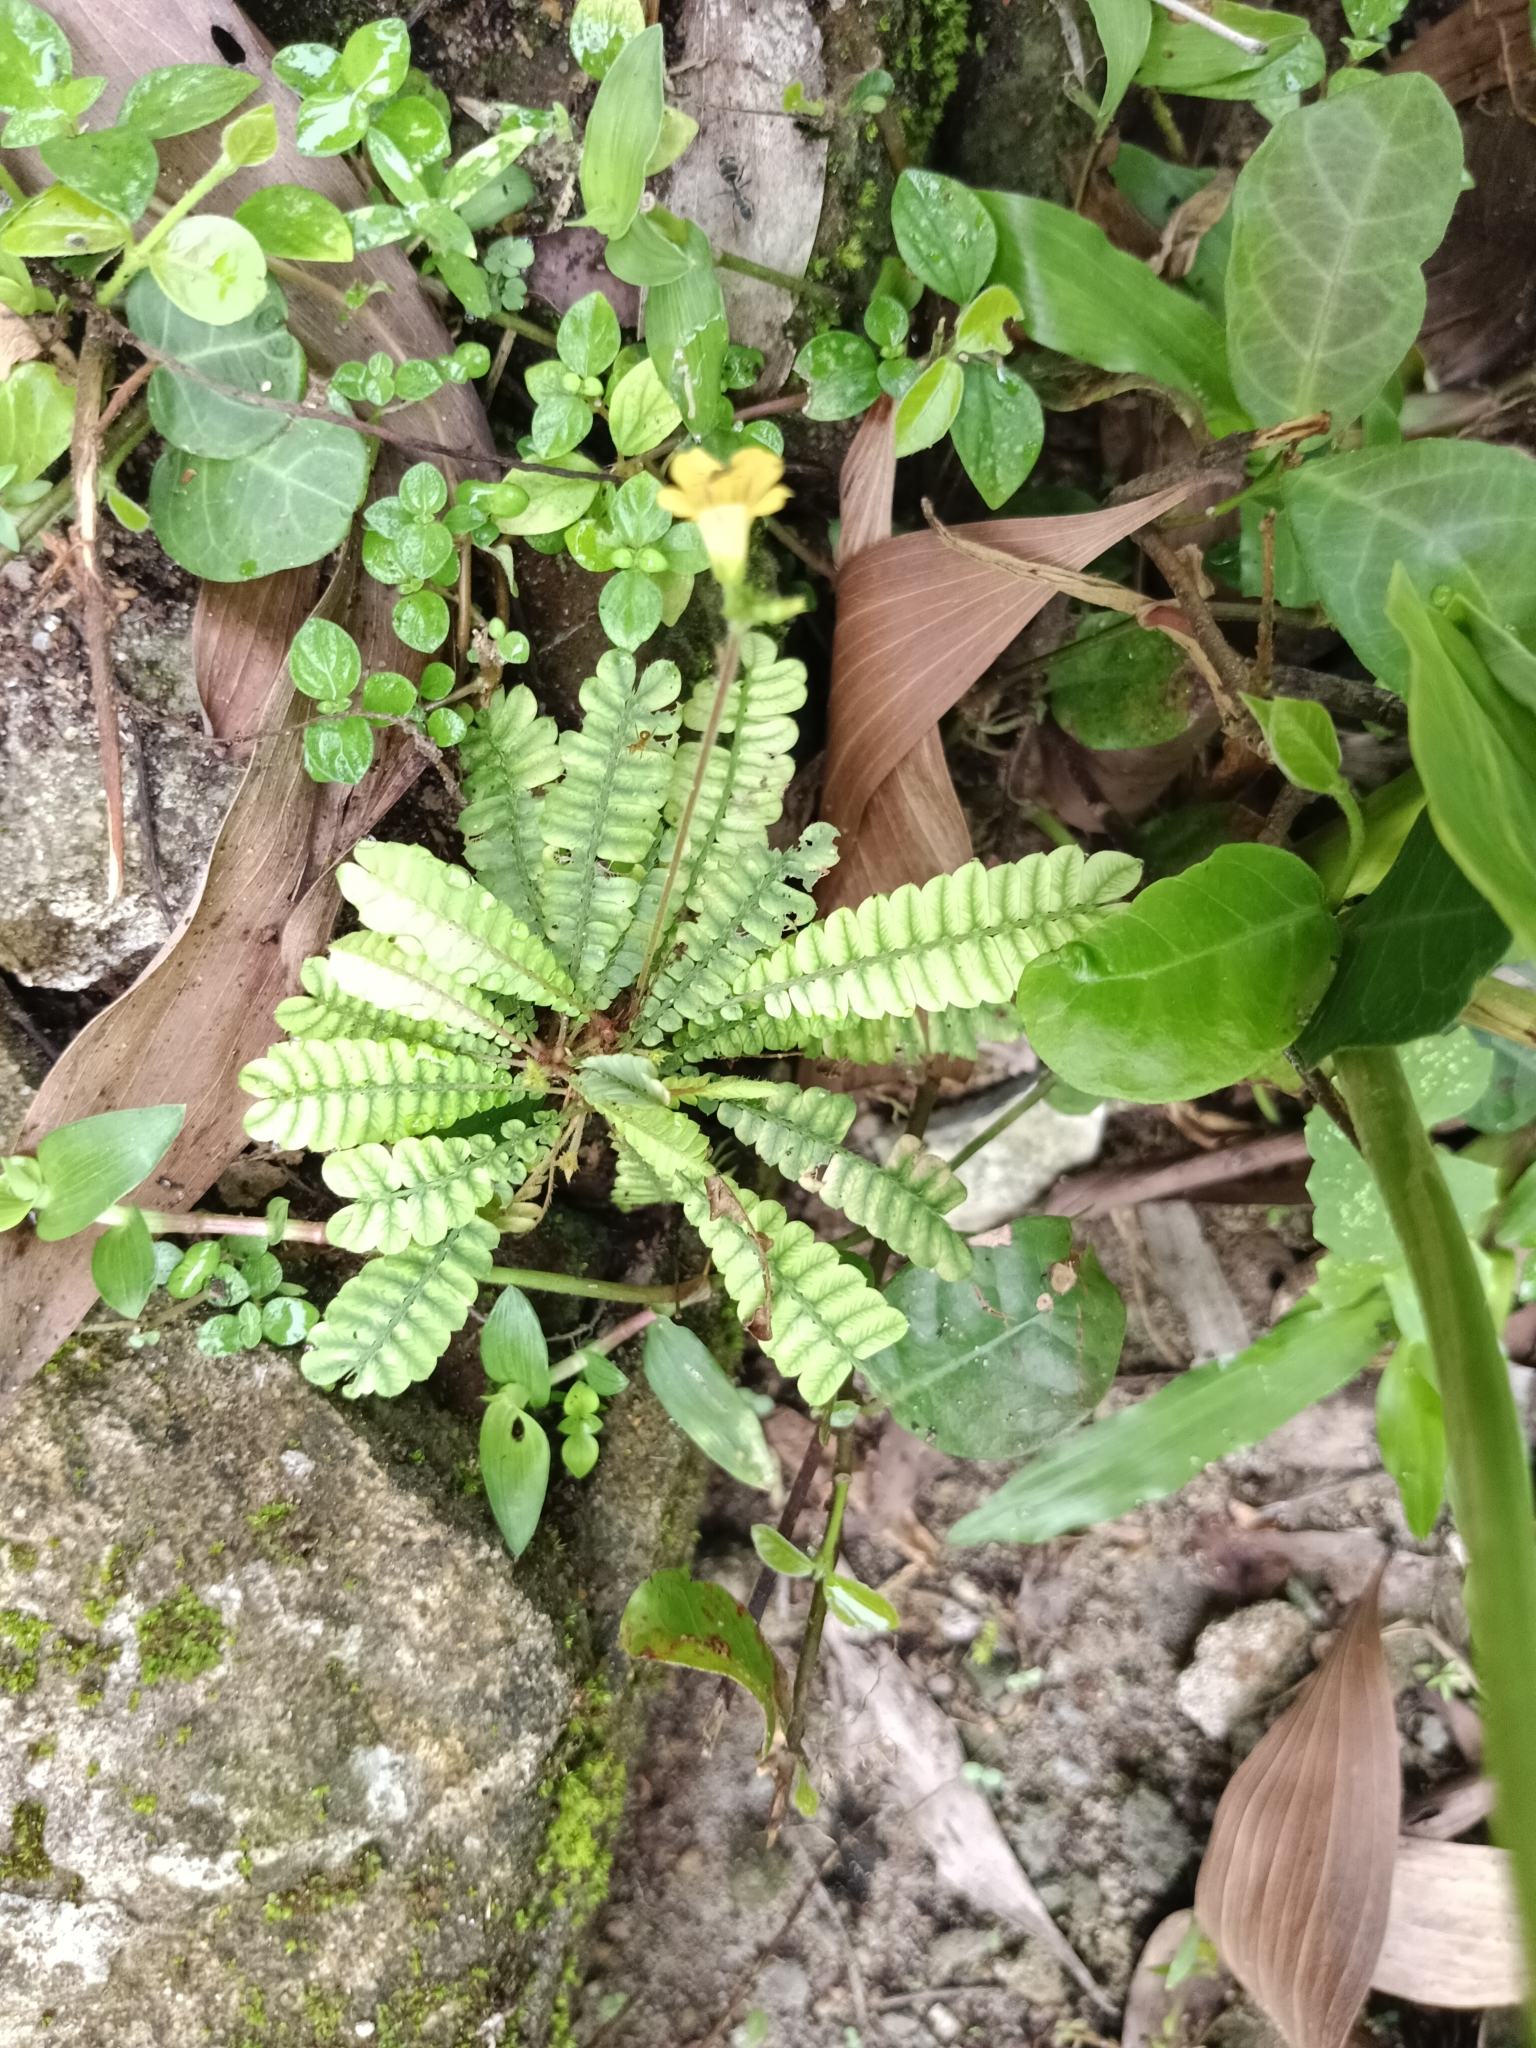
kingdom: Plantae
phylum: Tracheophyta
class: Magnoliopsida
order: Oxalidales
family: Oxalidaceae
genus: Biophytum
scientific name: Biophytum sensitivum
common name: Lifeplant
